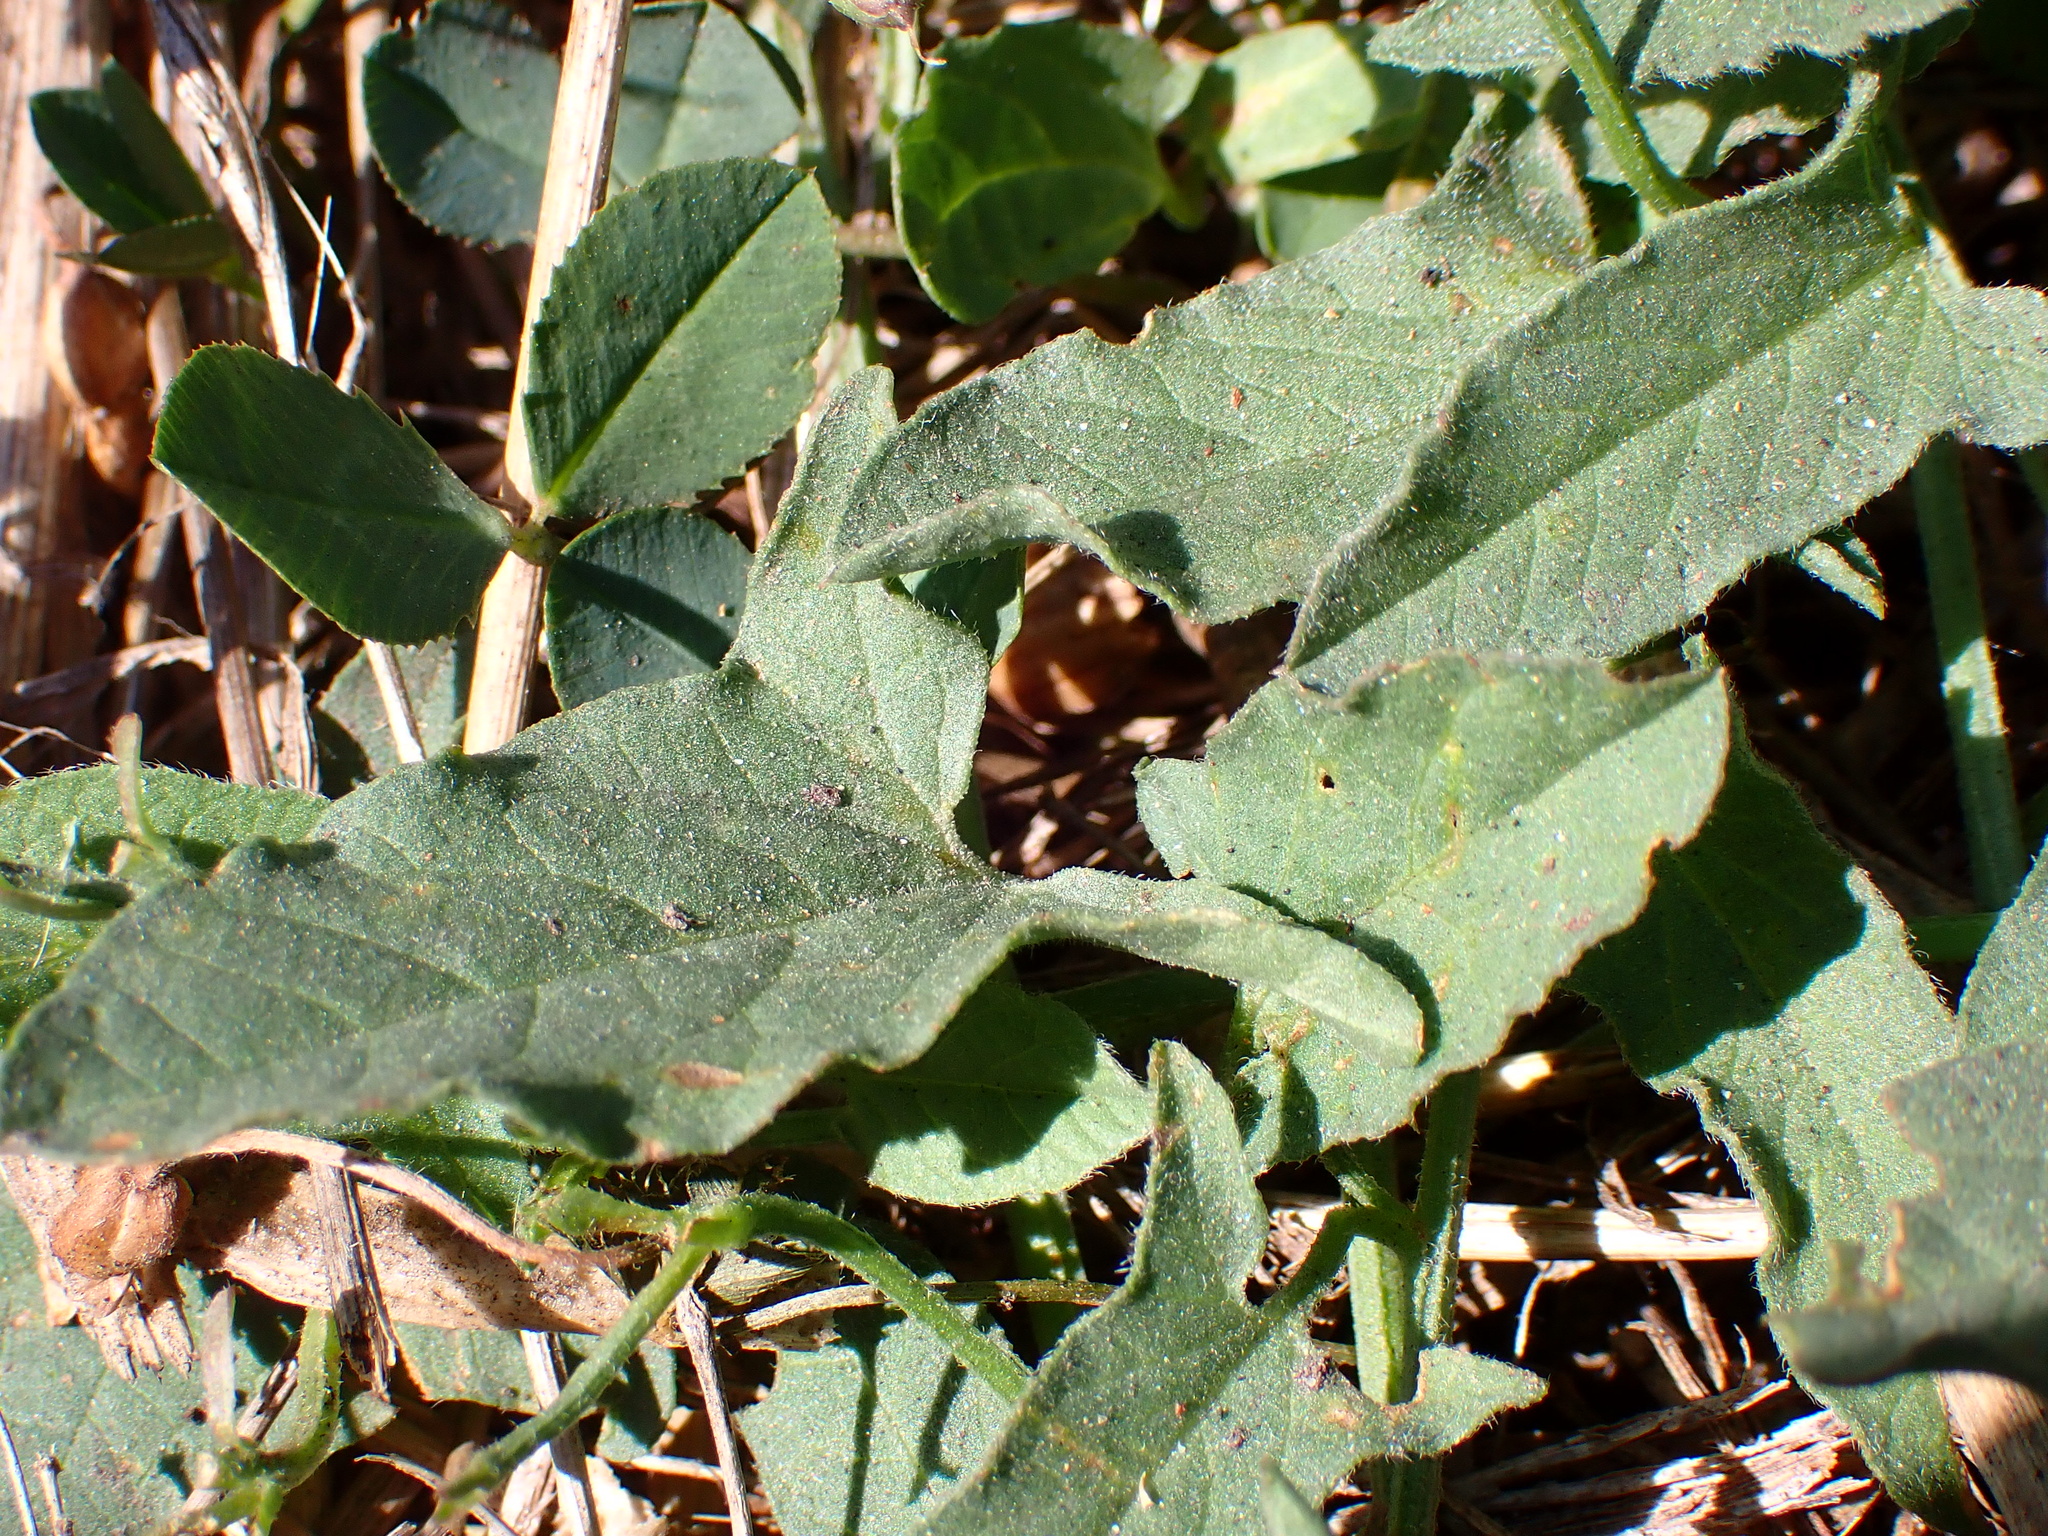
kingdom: Plantae
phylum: Tracheophyta
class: Magnoliopsida
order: Solanales
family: Convolvulaceae
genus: Convolvulus
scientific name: Convolvulus arvensis
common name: Field bindweed
